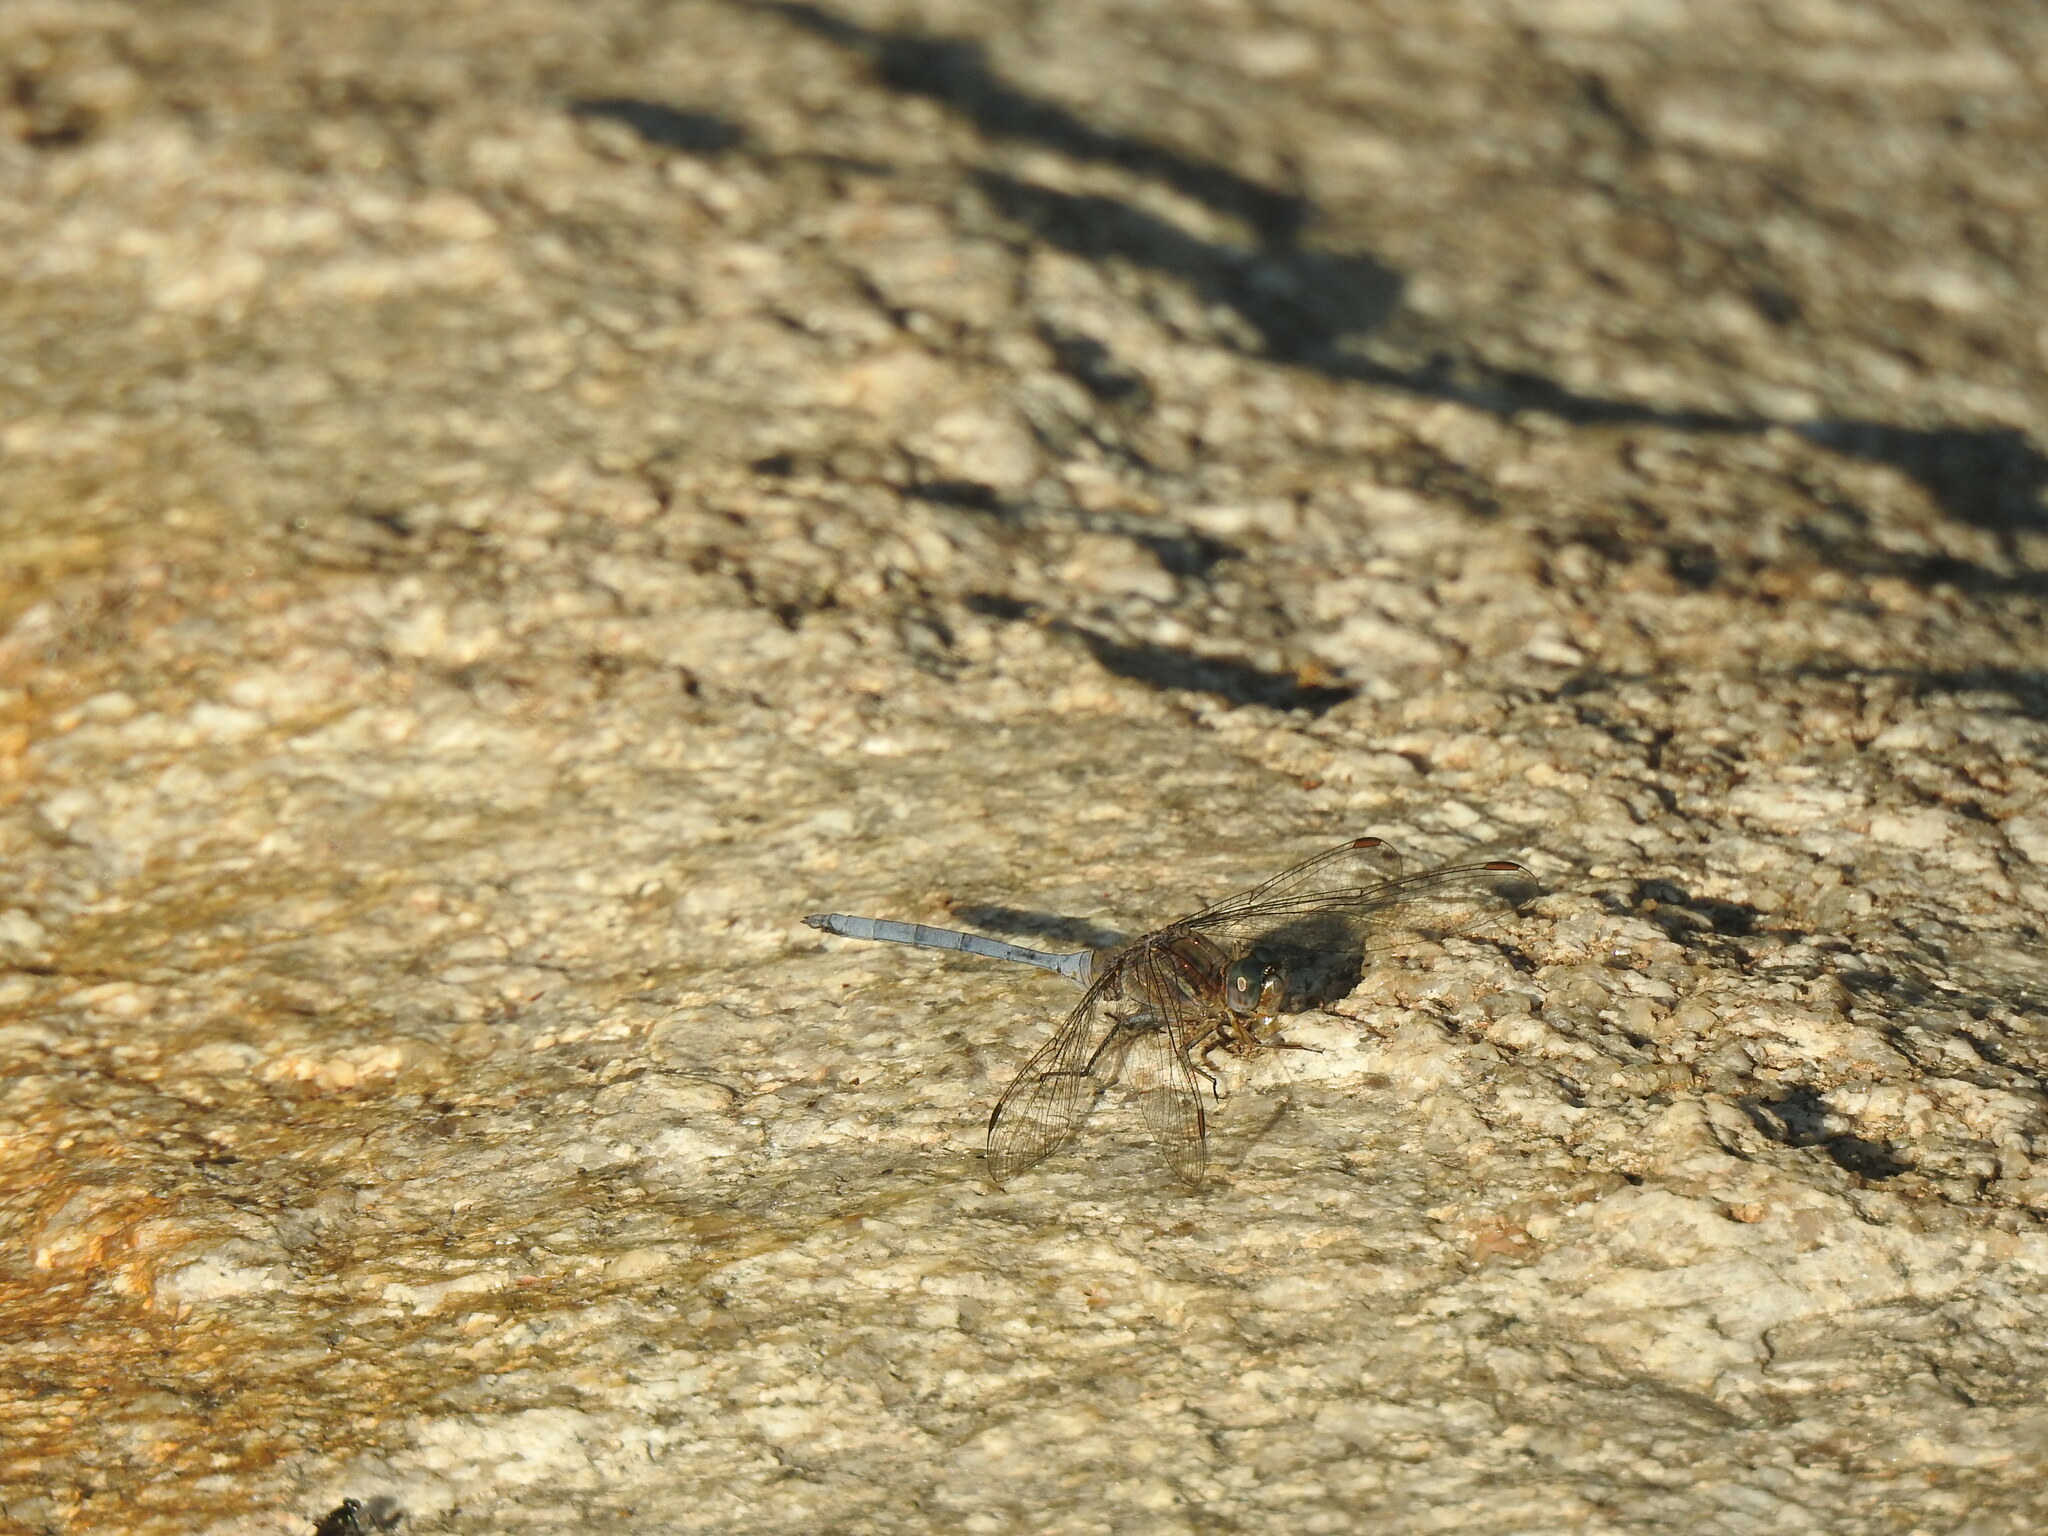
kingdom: Animalia
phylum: Arthropoda
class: Insecta
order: Odonata
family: Libellulidae
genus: Orthetrum
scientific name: Orthetrum chrysostigma
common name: Epaulet skimmer
